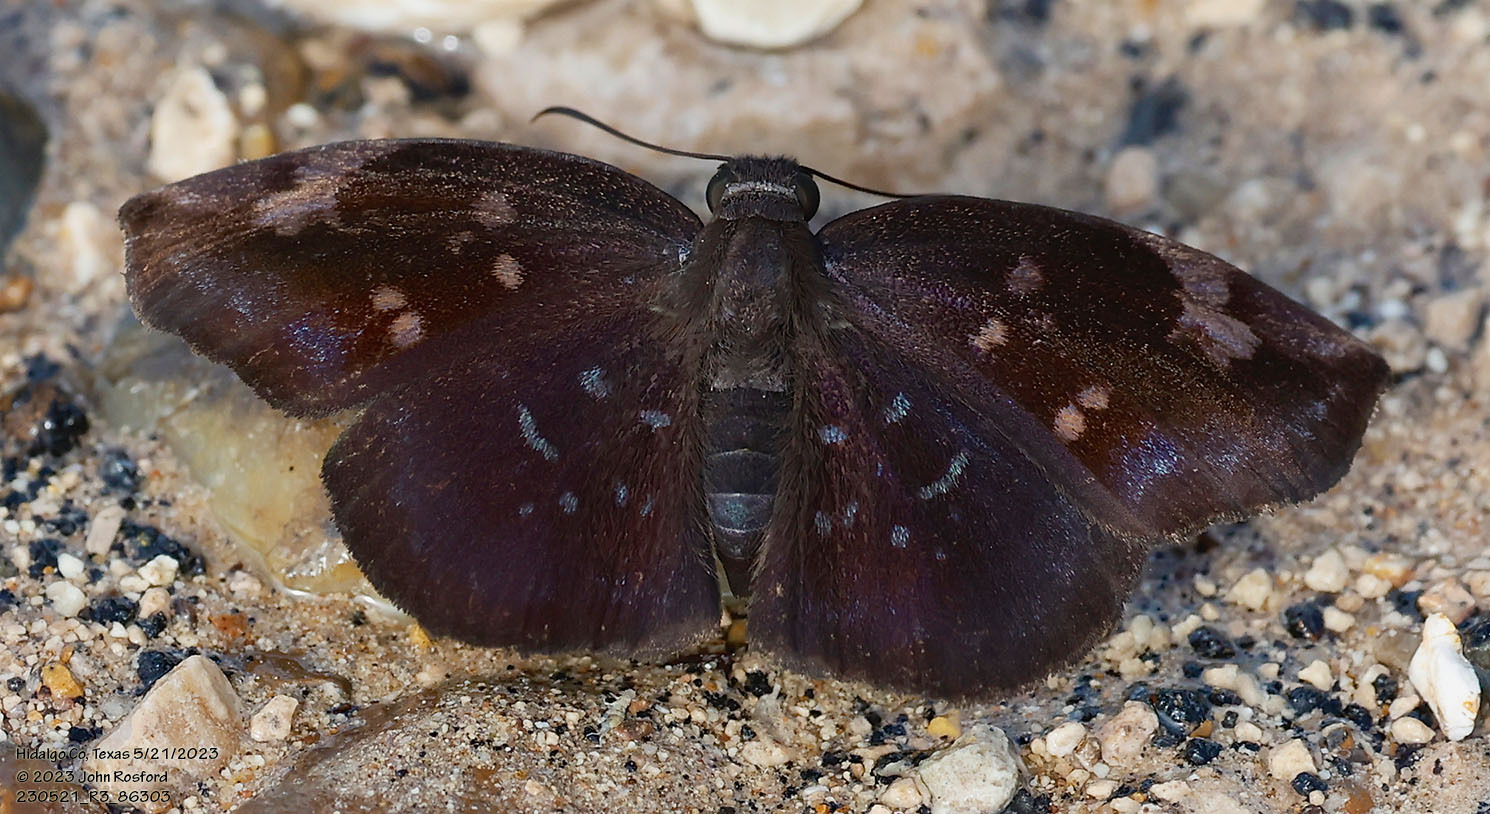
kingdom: Animalia
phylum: Arthropoda
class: Insecta
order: Lepidoptera
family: Hesperiidae
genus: Achlyodes
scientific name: Achlyodes thraso
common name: Sickle-winged skipper
